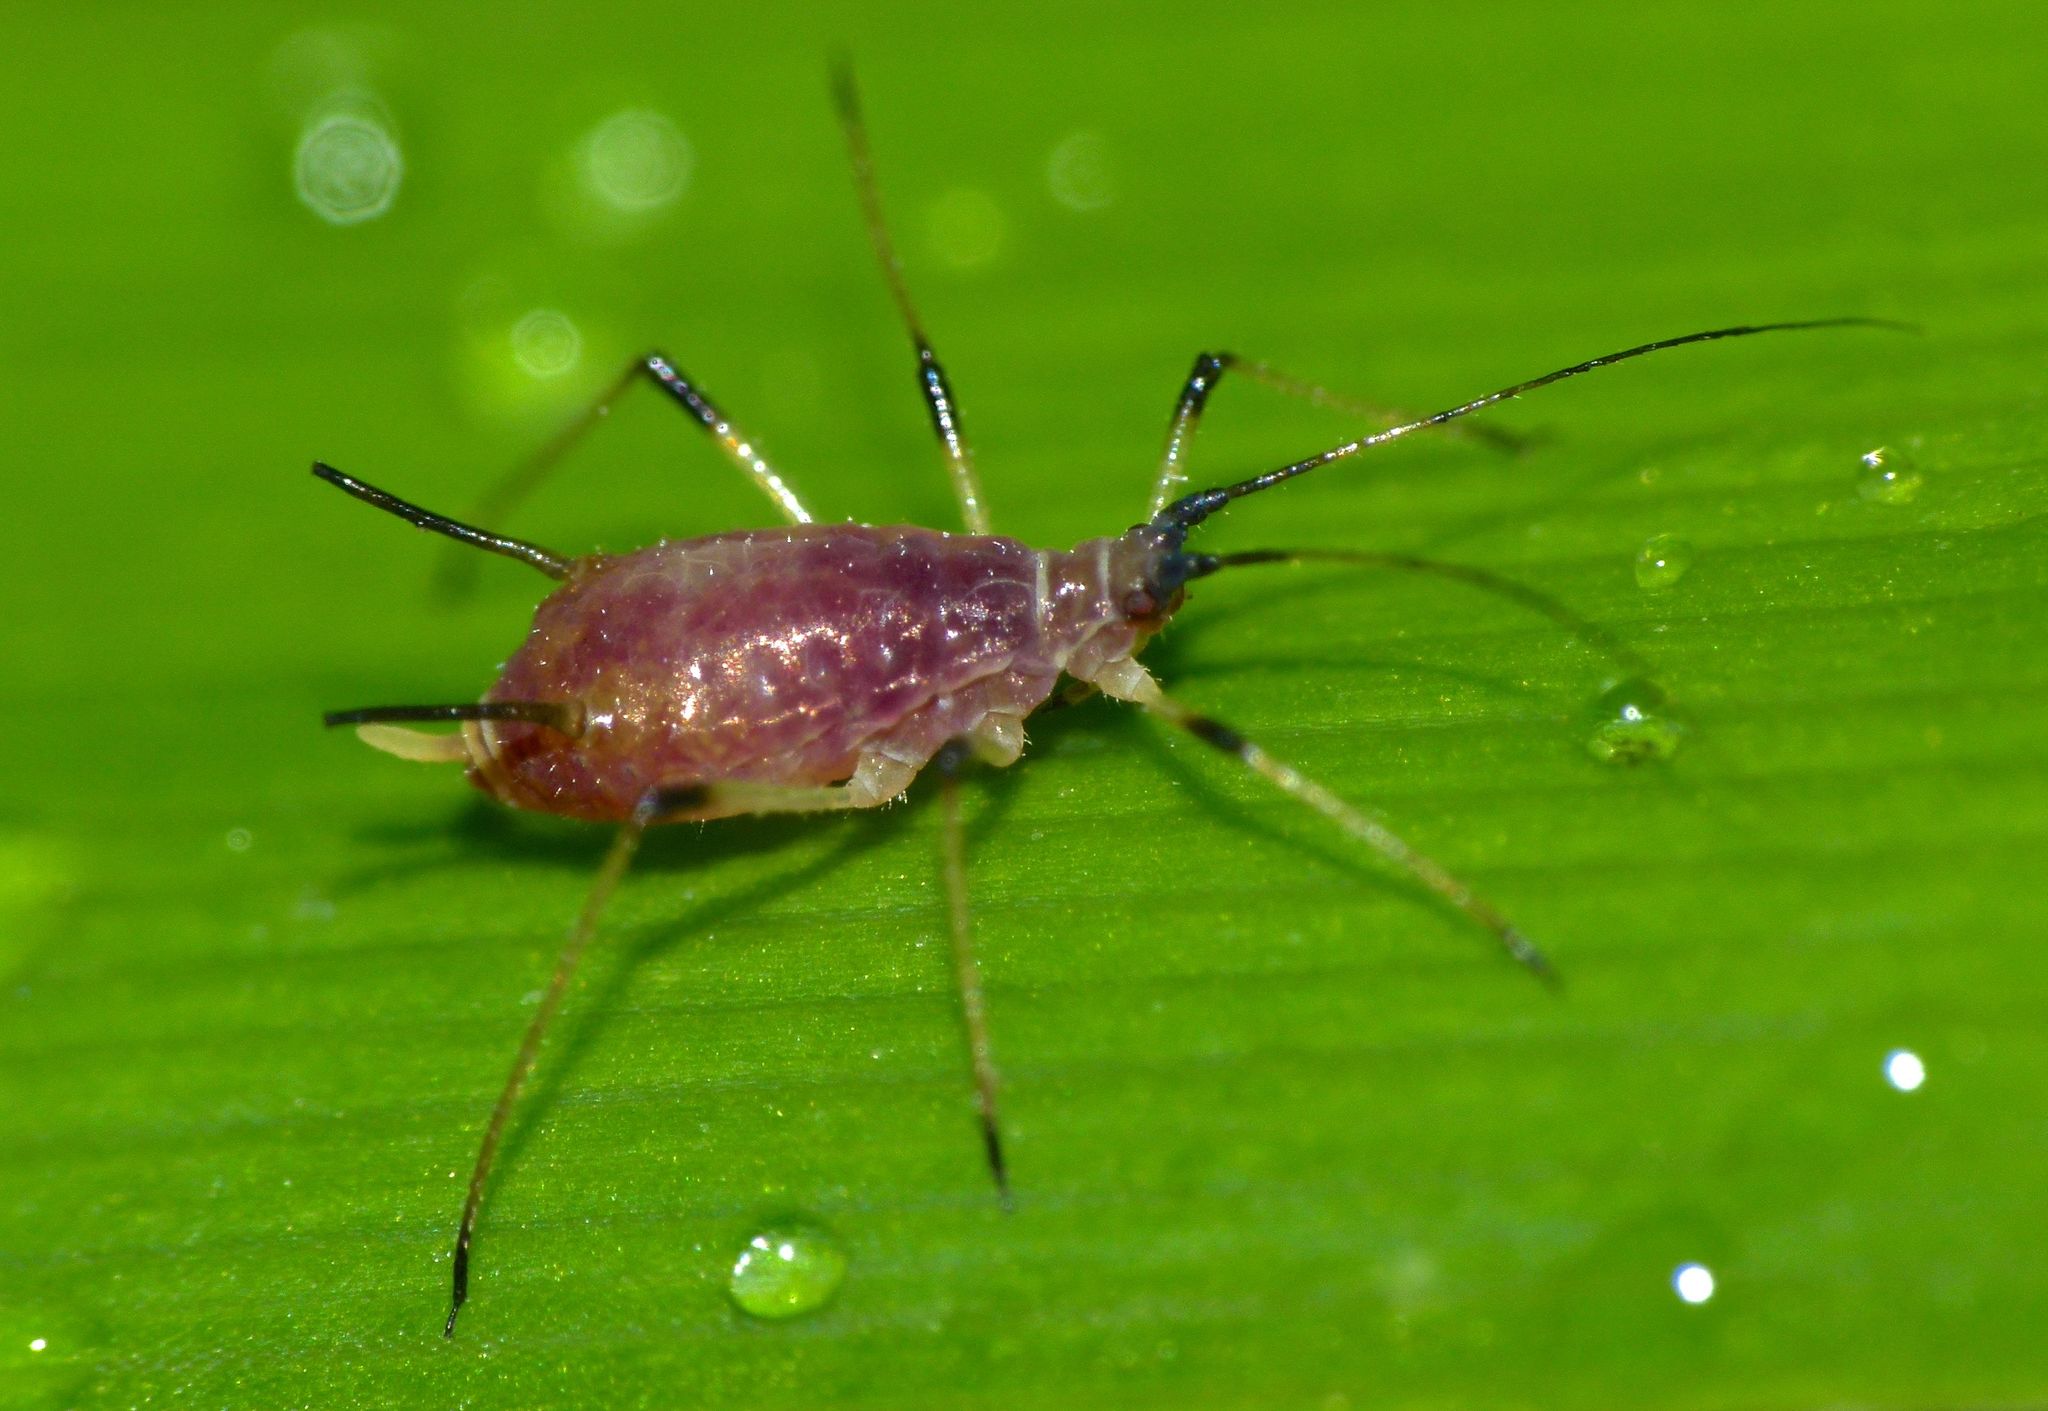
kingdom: Animalia
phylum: Arthropoda
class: Insecta
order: Hemiptera
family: Aphididae
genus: Macrosiphum
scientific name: Macrosiphum rosae
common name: Rose aphid
